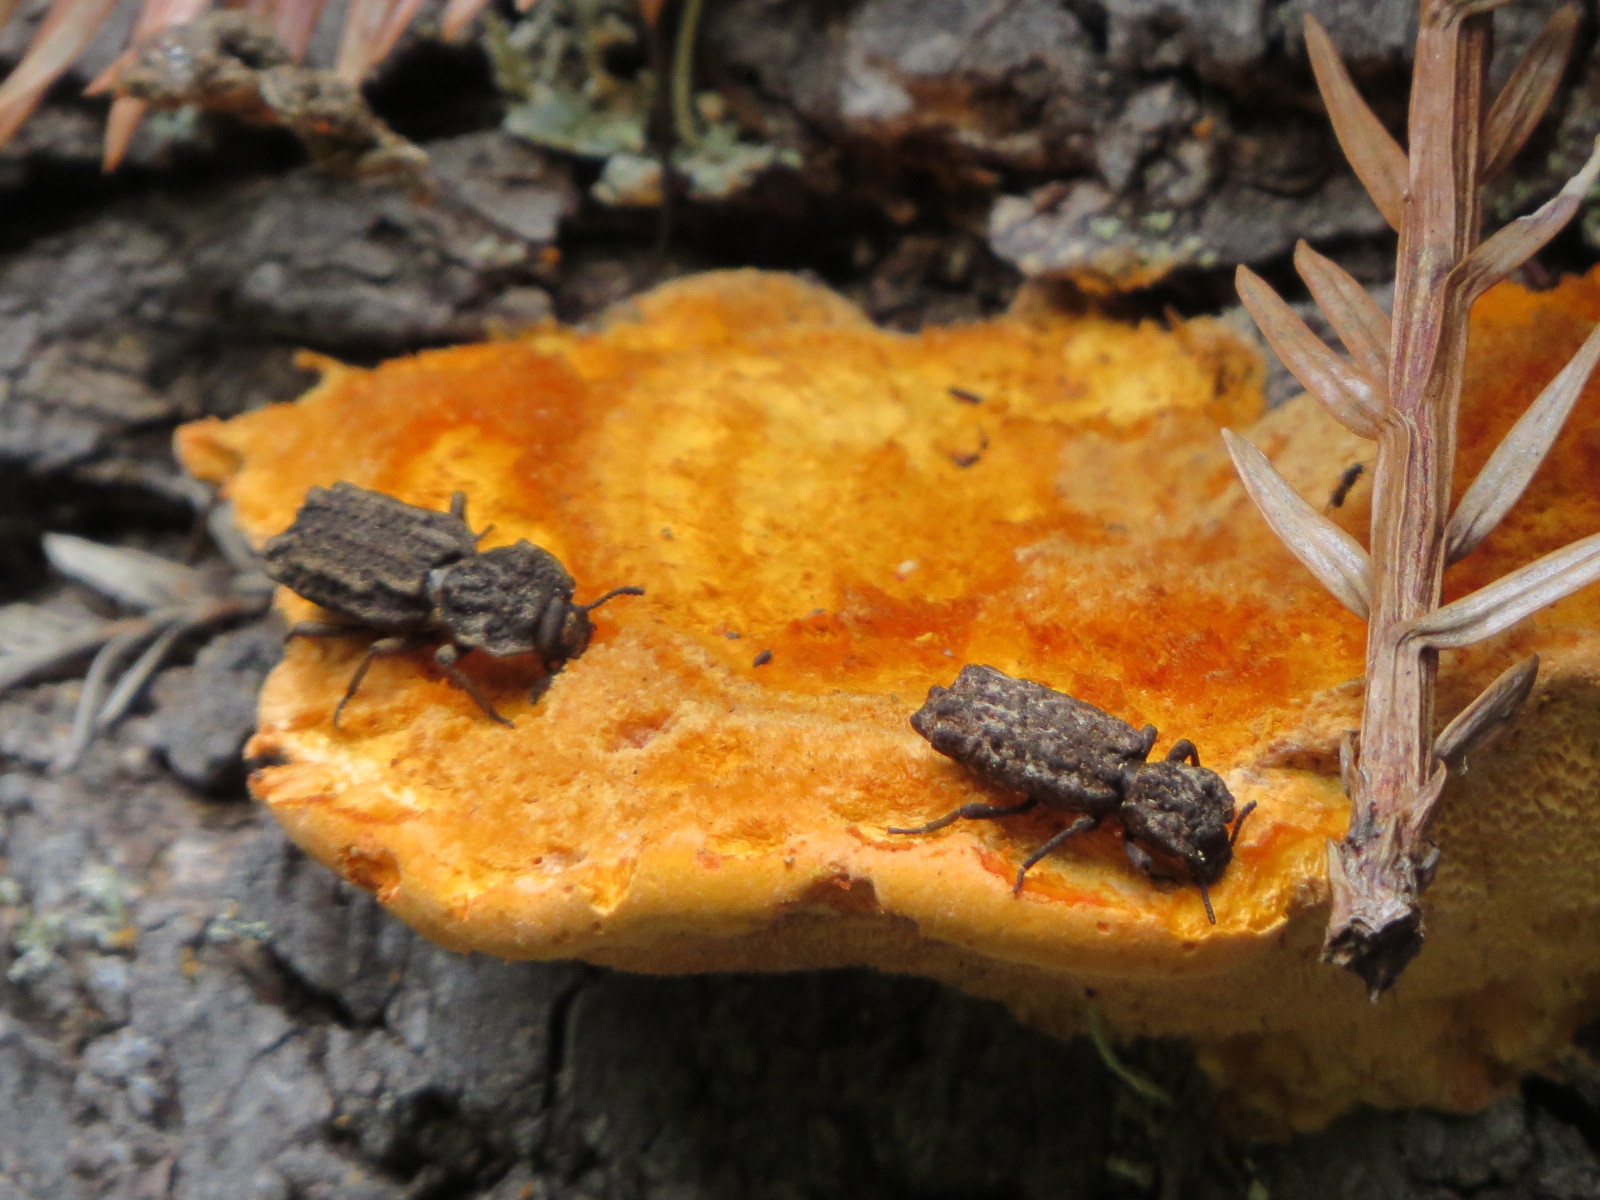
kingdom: Animalia
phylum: Arthropoda
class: Insecta
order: Coleoptera
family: Zopheridae
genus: Phellopsis
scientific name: Phellopsis porcata
